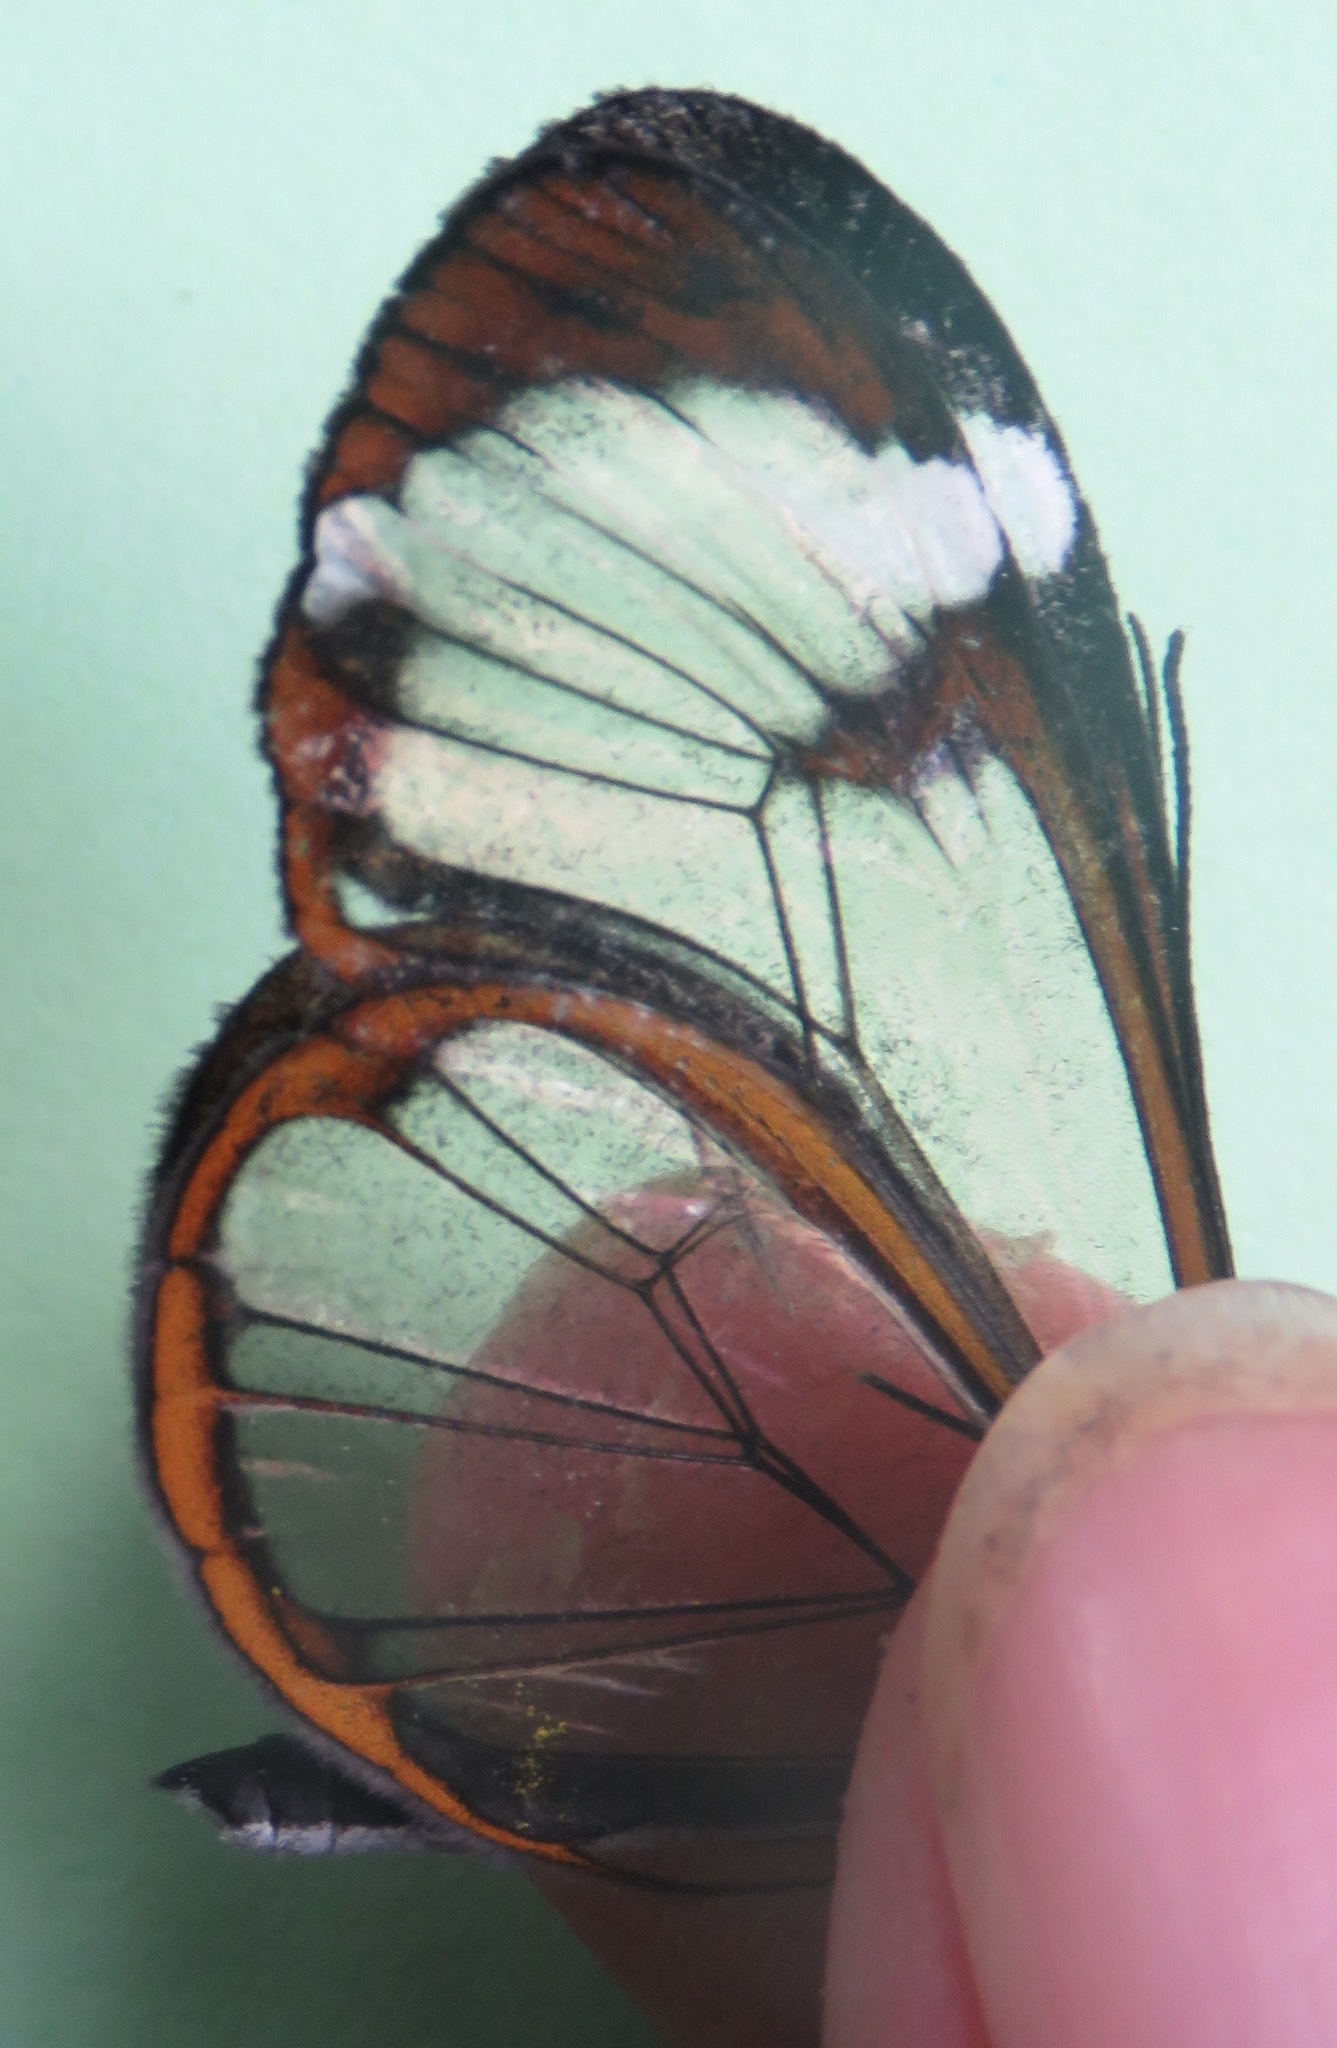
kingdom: Animalia
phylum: Arthropoda
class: Insecta
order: Lepidoptera
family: Nymphalidae
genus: Greta
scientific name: Greta morgane
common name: Thick-tipped greta
